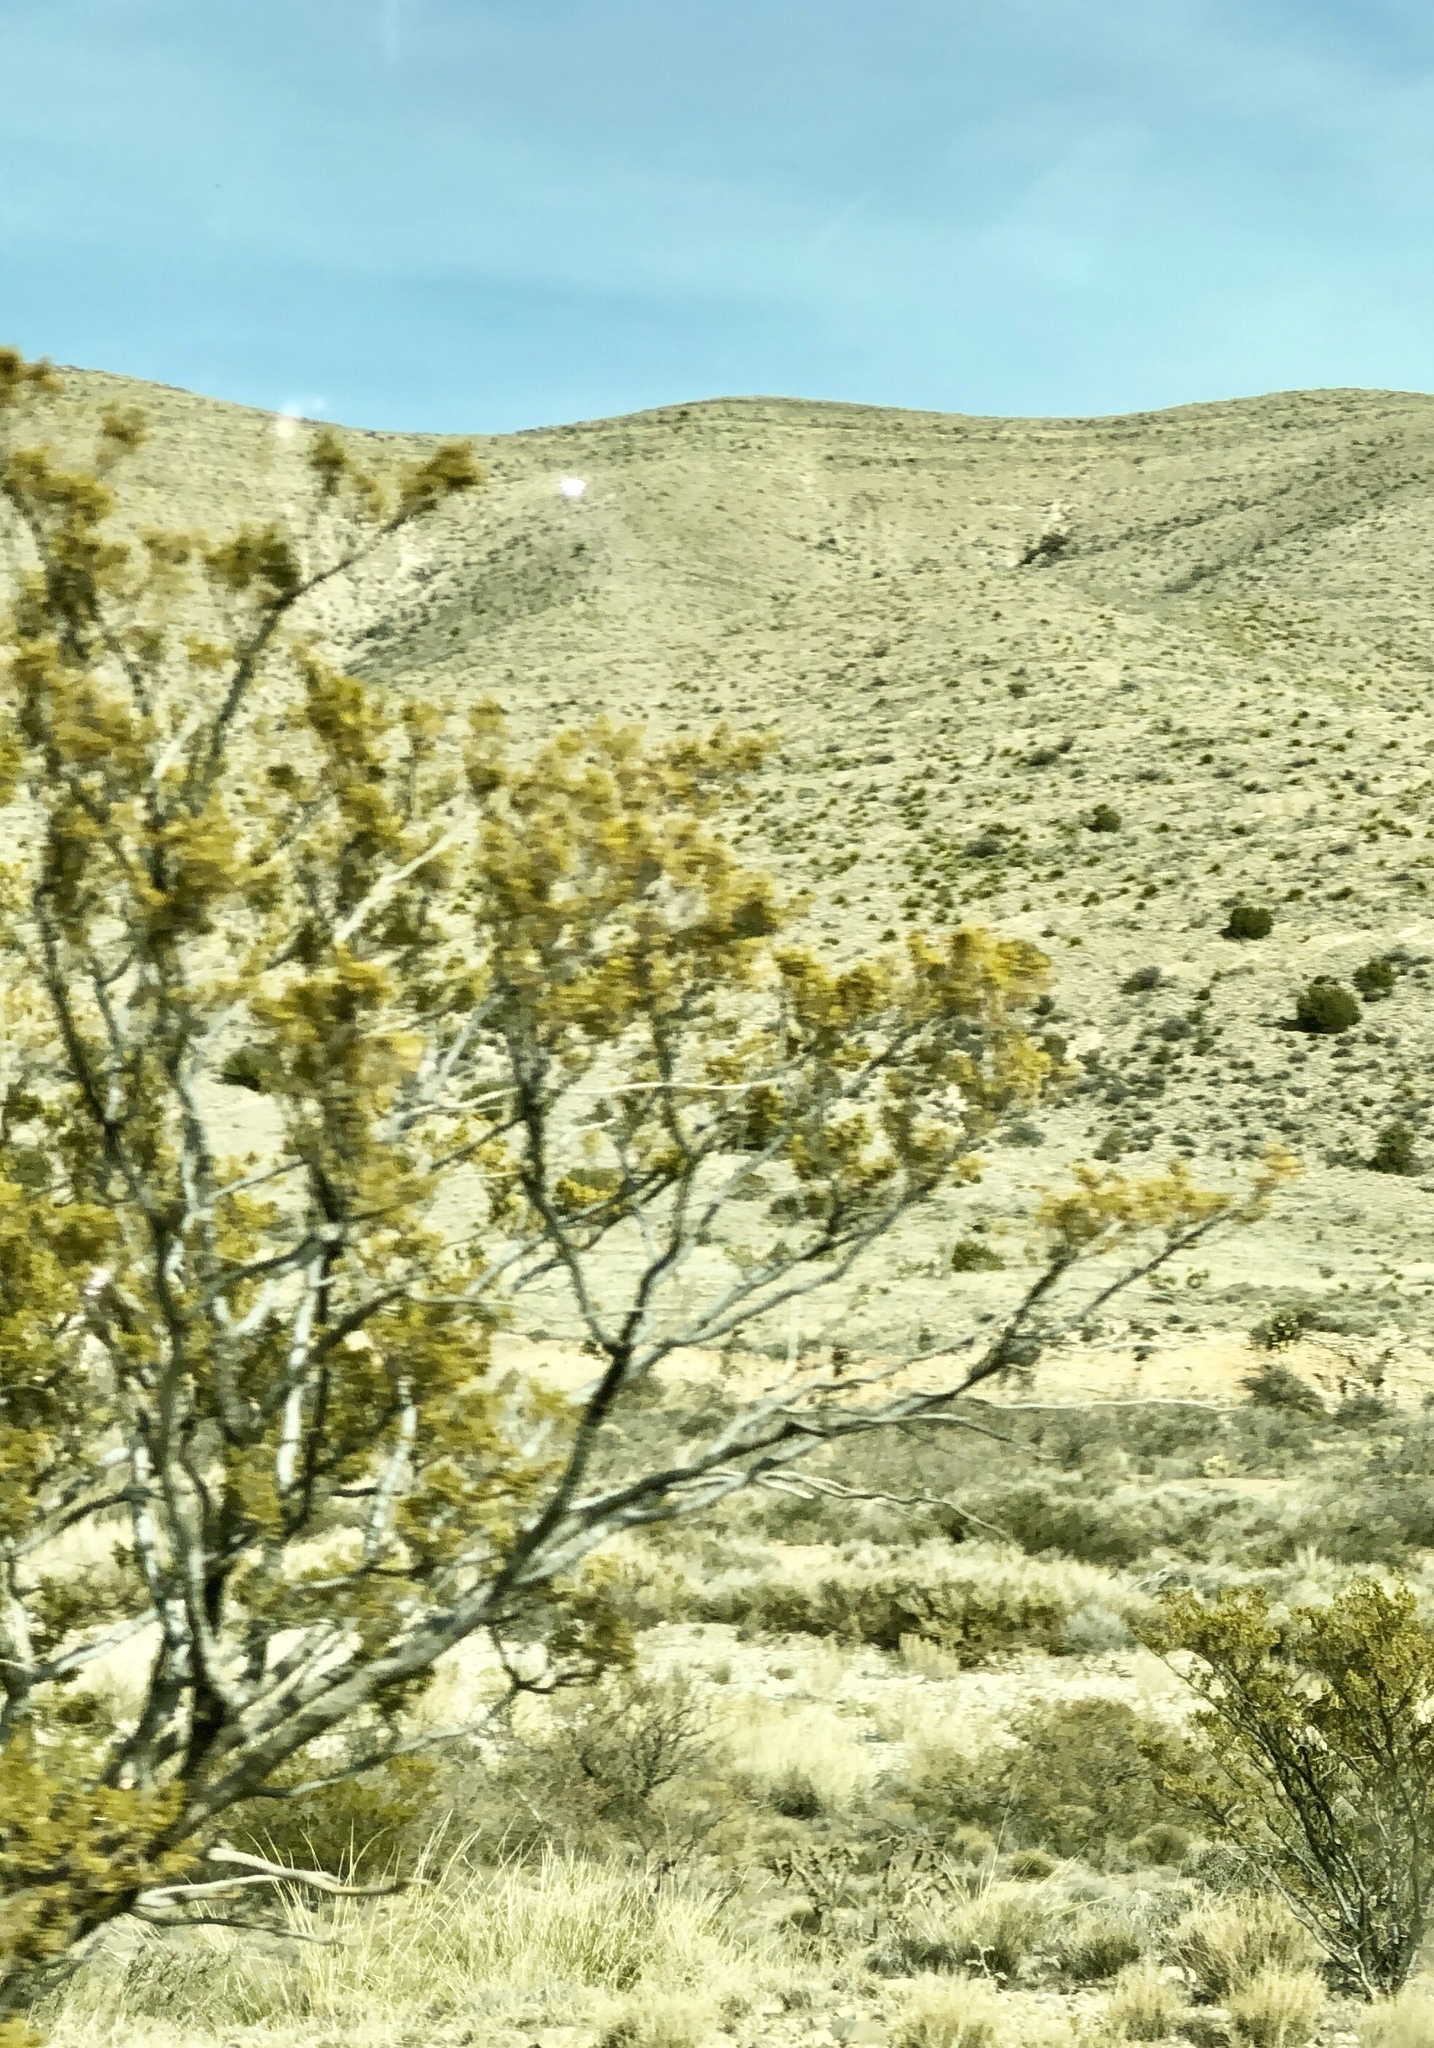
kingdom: Plantae
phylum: Tracheophyta
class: Magnoliopsida
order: Zygophyllales
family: Zygophyllaceae
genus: Larrea
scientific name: Larrea tridentata
